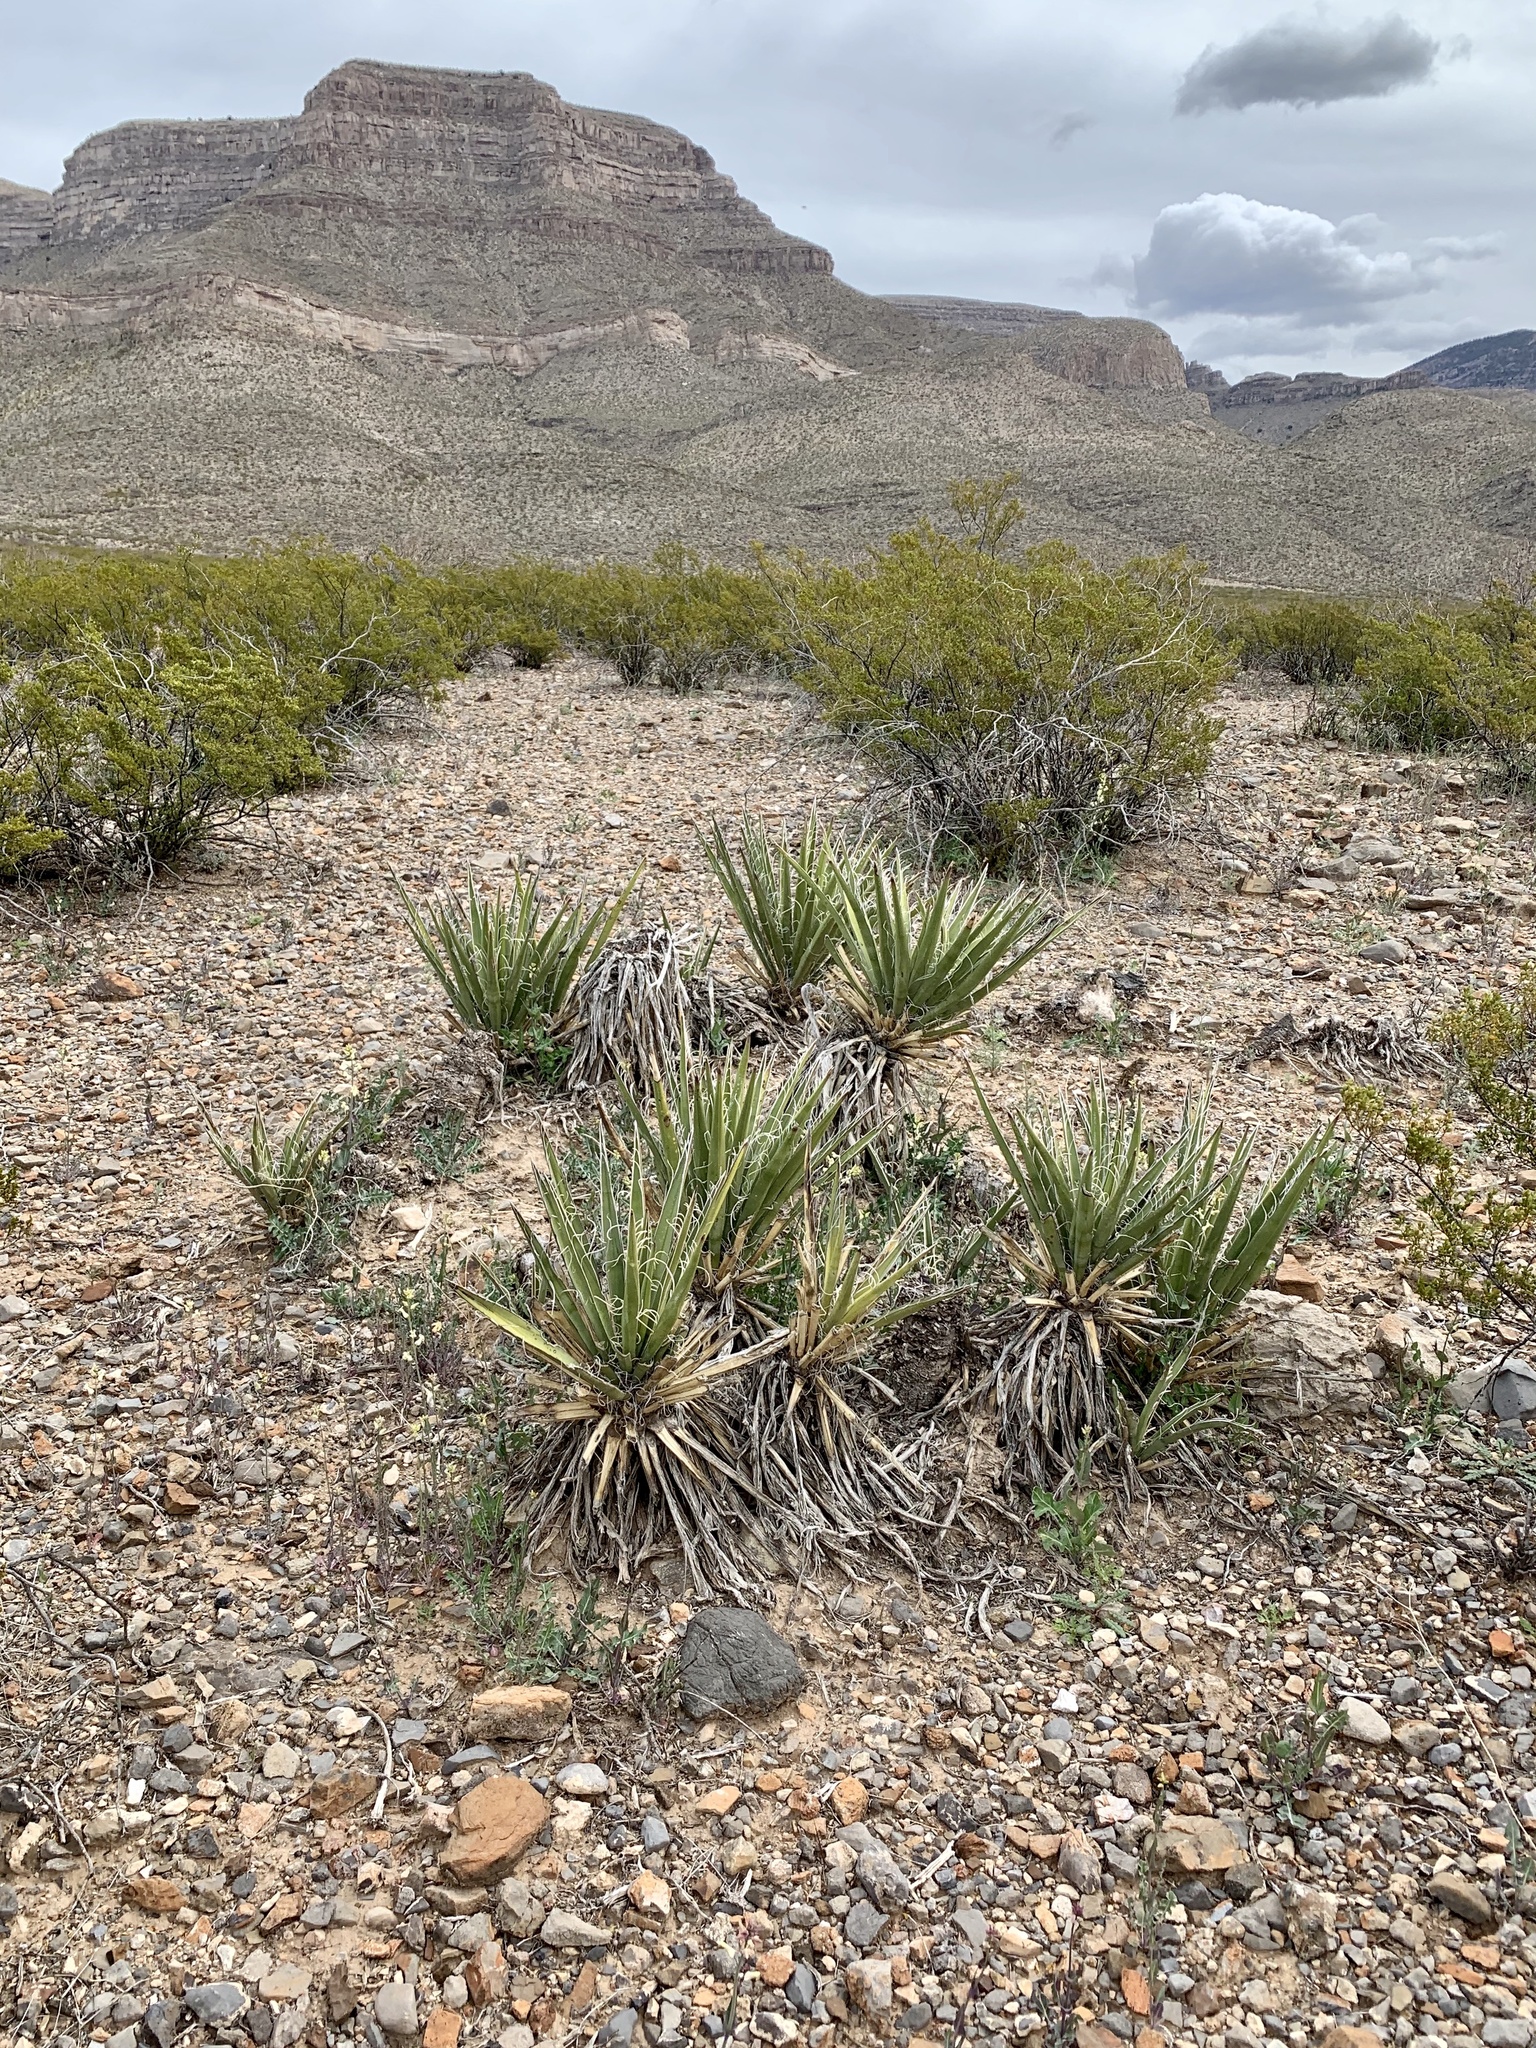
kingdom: Plantae
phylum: Tracheophyta
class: Liliopsida
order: Asparagales
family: Asparagaceae
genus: Yucca
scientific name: Yucca baccata
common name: Banana yucca
